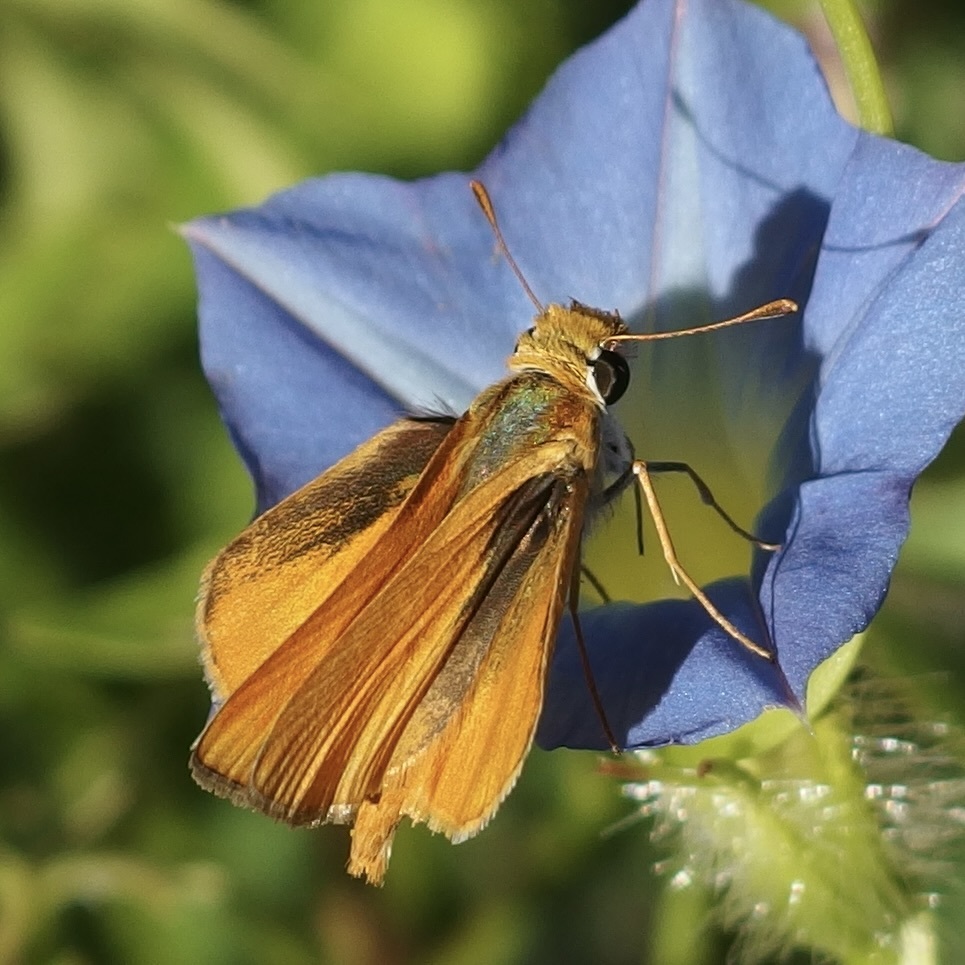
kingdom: Animalia
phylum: Arthropoda
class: Insecta
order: Lepidoptera
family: Hesperiidae
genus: Copaeodes
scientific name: Copaeodes aurantiaca
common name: Orange skipperling
